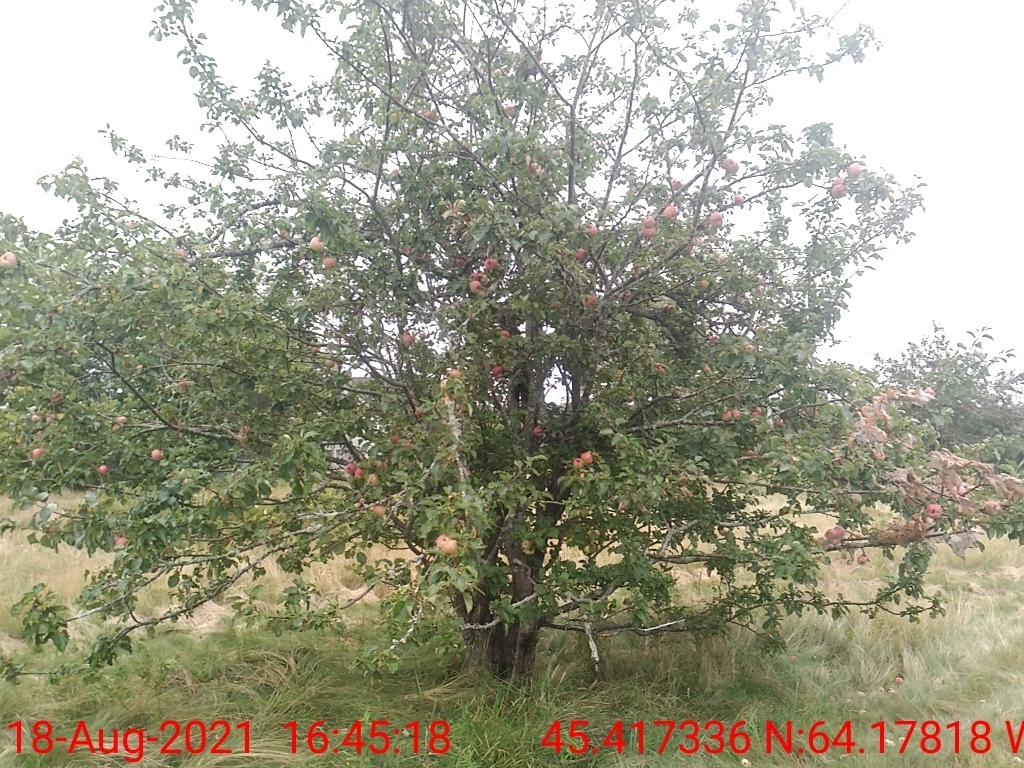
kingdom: Plantae
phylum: Tracheophyta
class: Magnoliopsida
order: Rosales
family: Rosaceae
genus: Malus
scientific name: Malus domestica
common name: Apple
